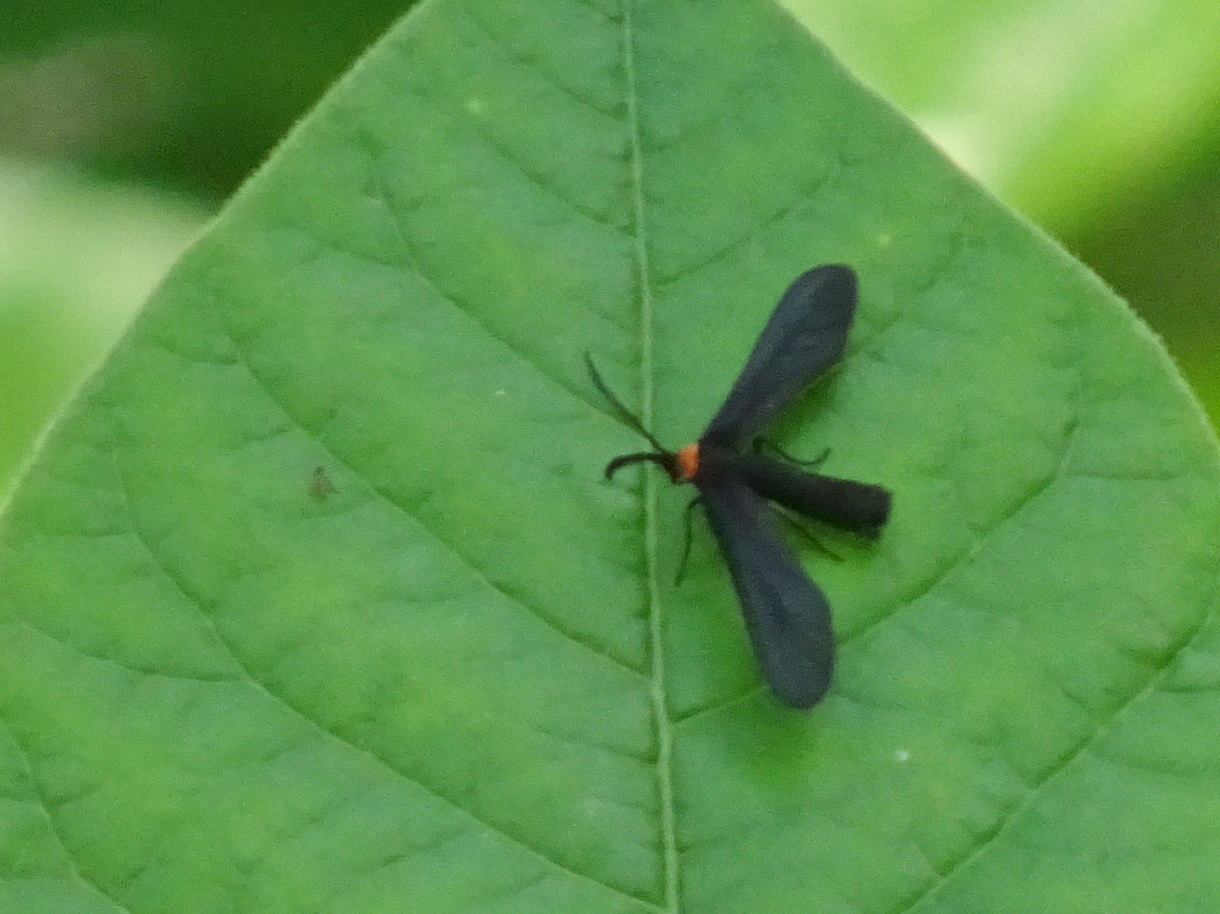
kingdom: Animalia
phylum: Arthropoda
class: Insecta
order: Lepidoptera
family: Zygaenidae
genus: Harrisina
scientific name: Harrisina americana
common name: Grapeleaf skeletonizer moth
